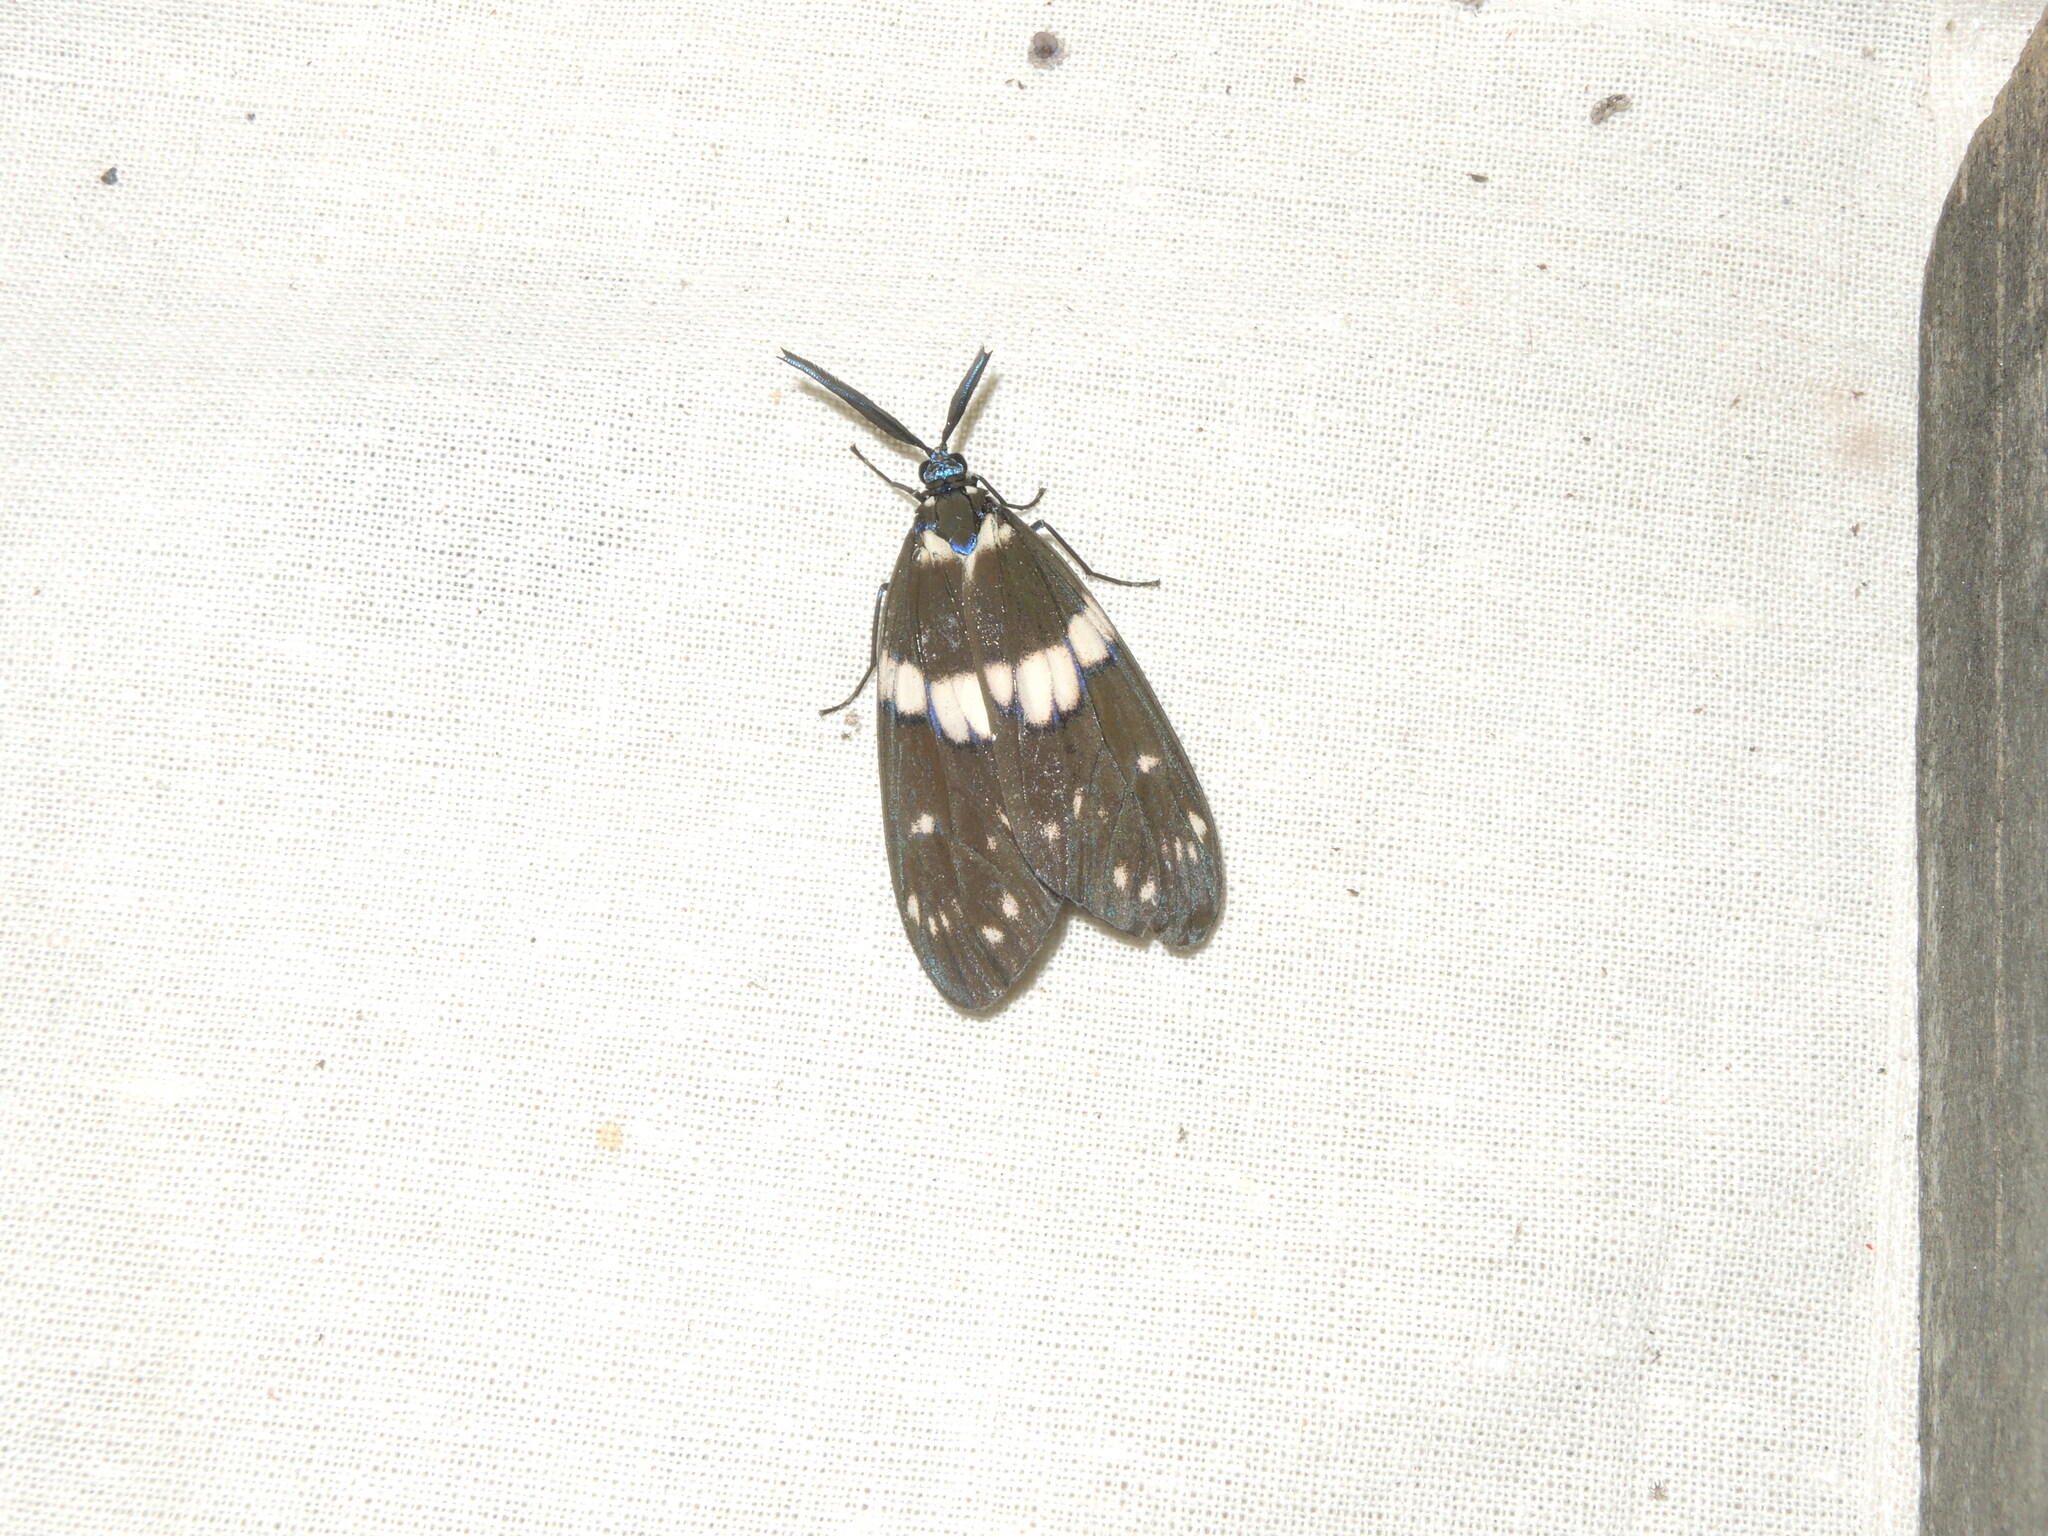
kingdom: Animalia
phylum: Arthropoda
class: Insecta
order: Lepidoptera
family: Zygaenidae
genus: Eterusia
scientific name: Eterusia aedea
